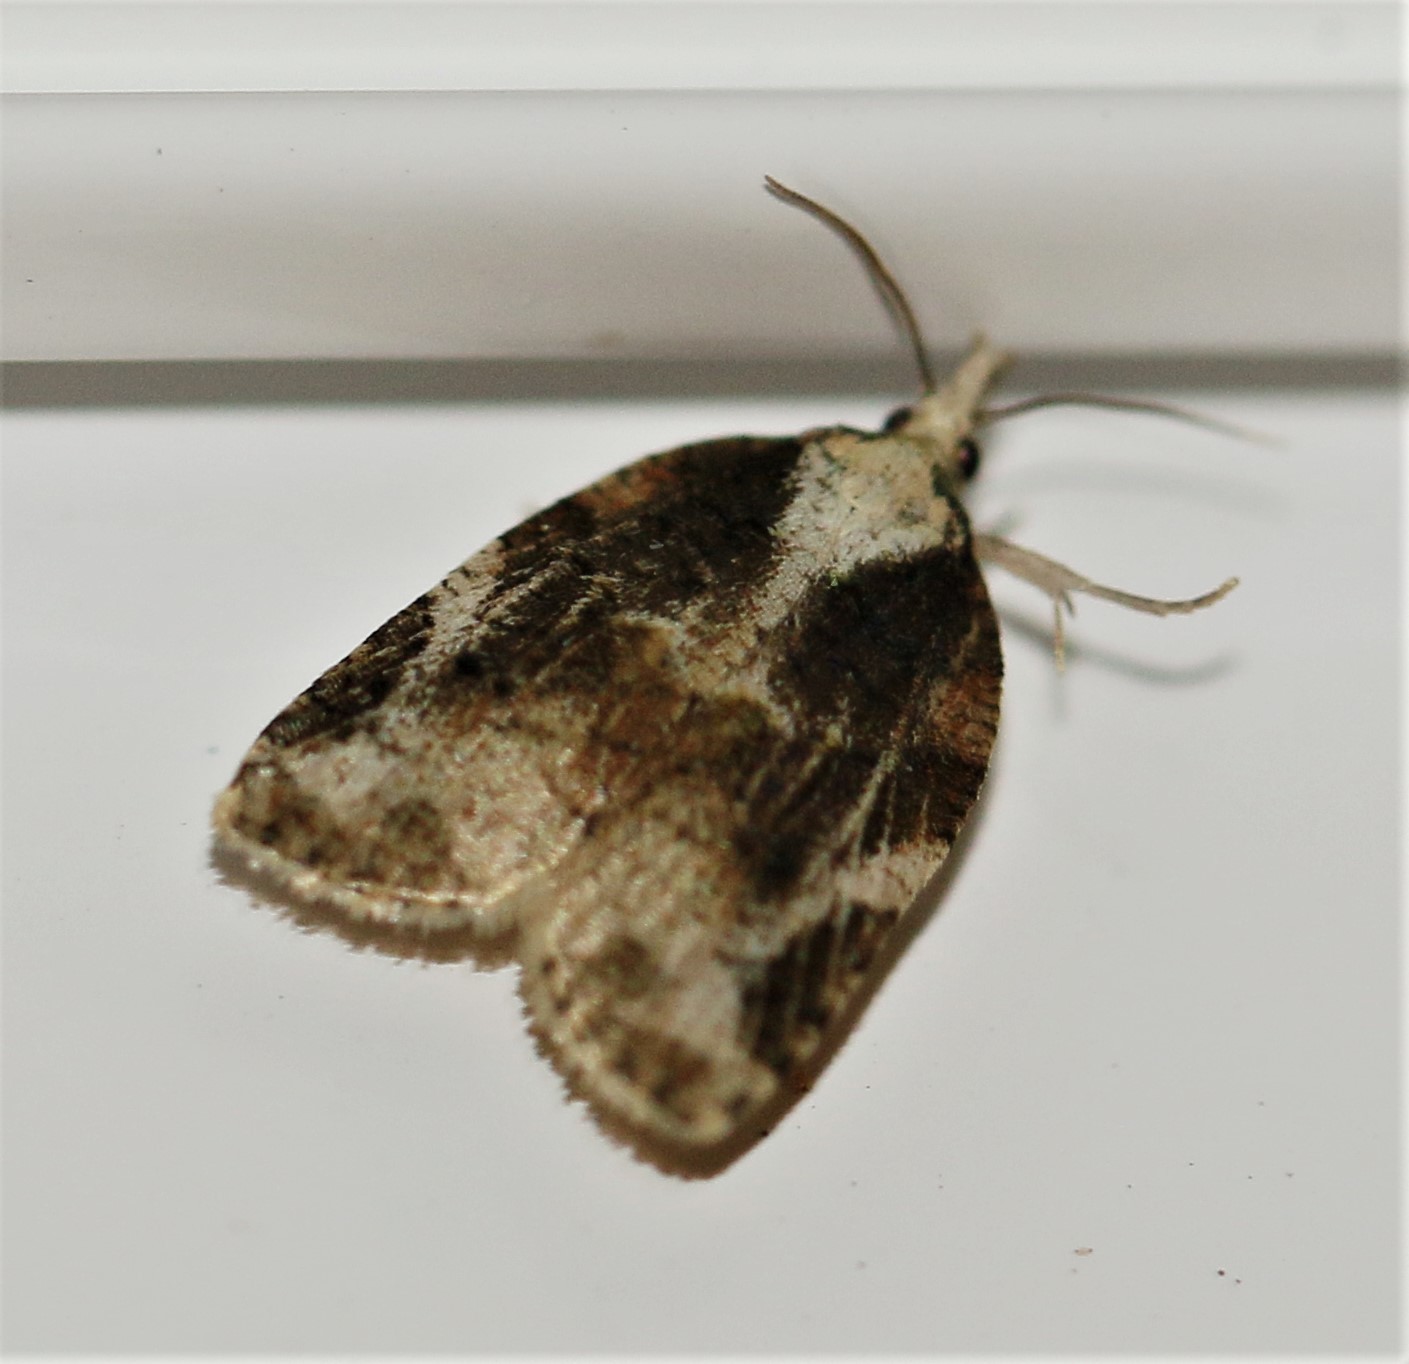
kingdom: Animalia
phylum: Arthropoda
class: Insecta
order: Lepidoptera
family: Tortricidae
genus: Platynota
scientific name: Platynota exasperatana
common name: Exasperating platynota moth
